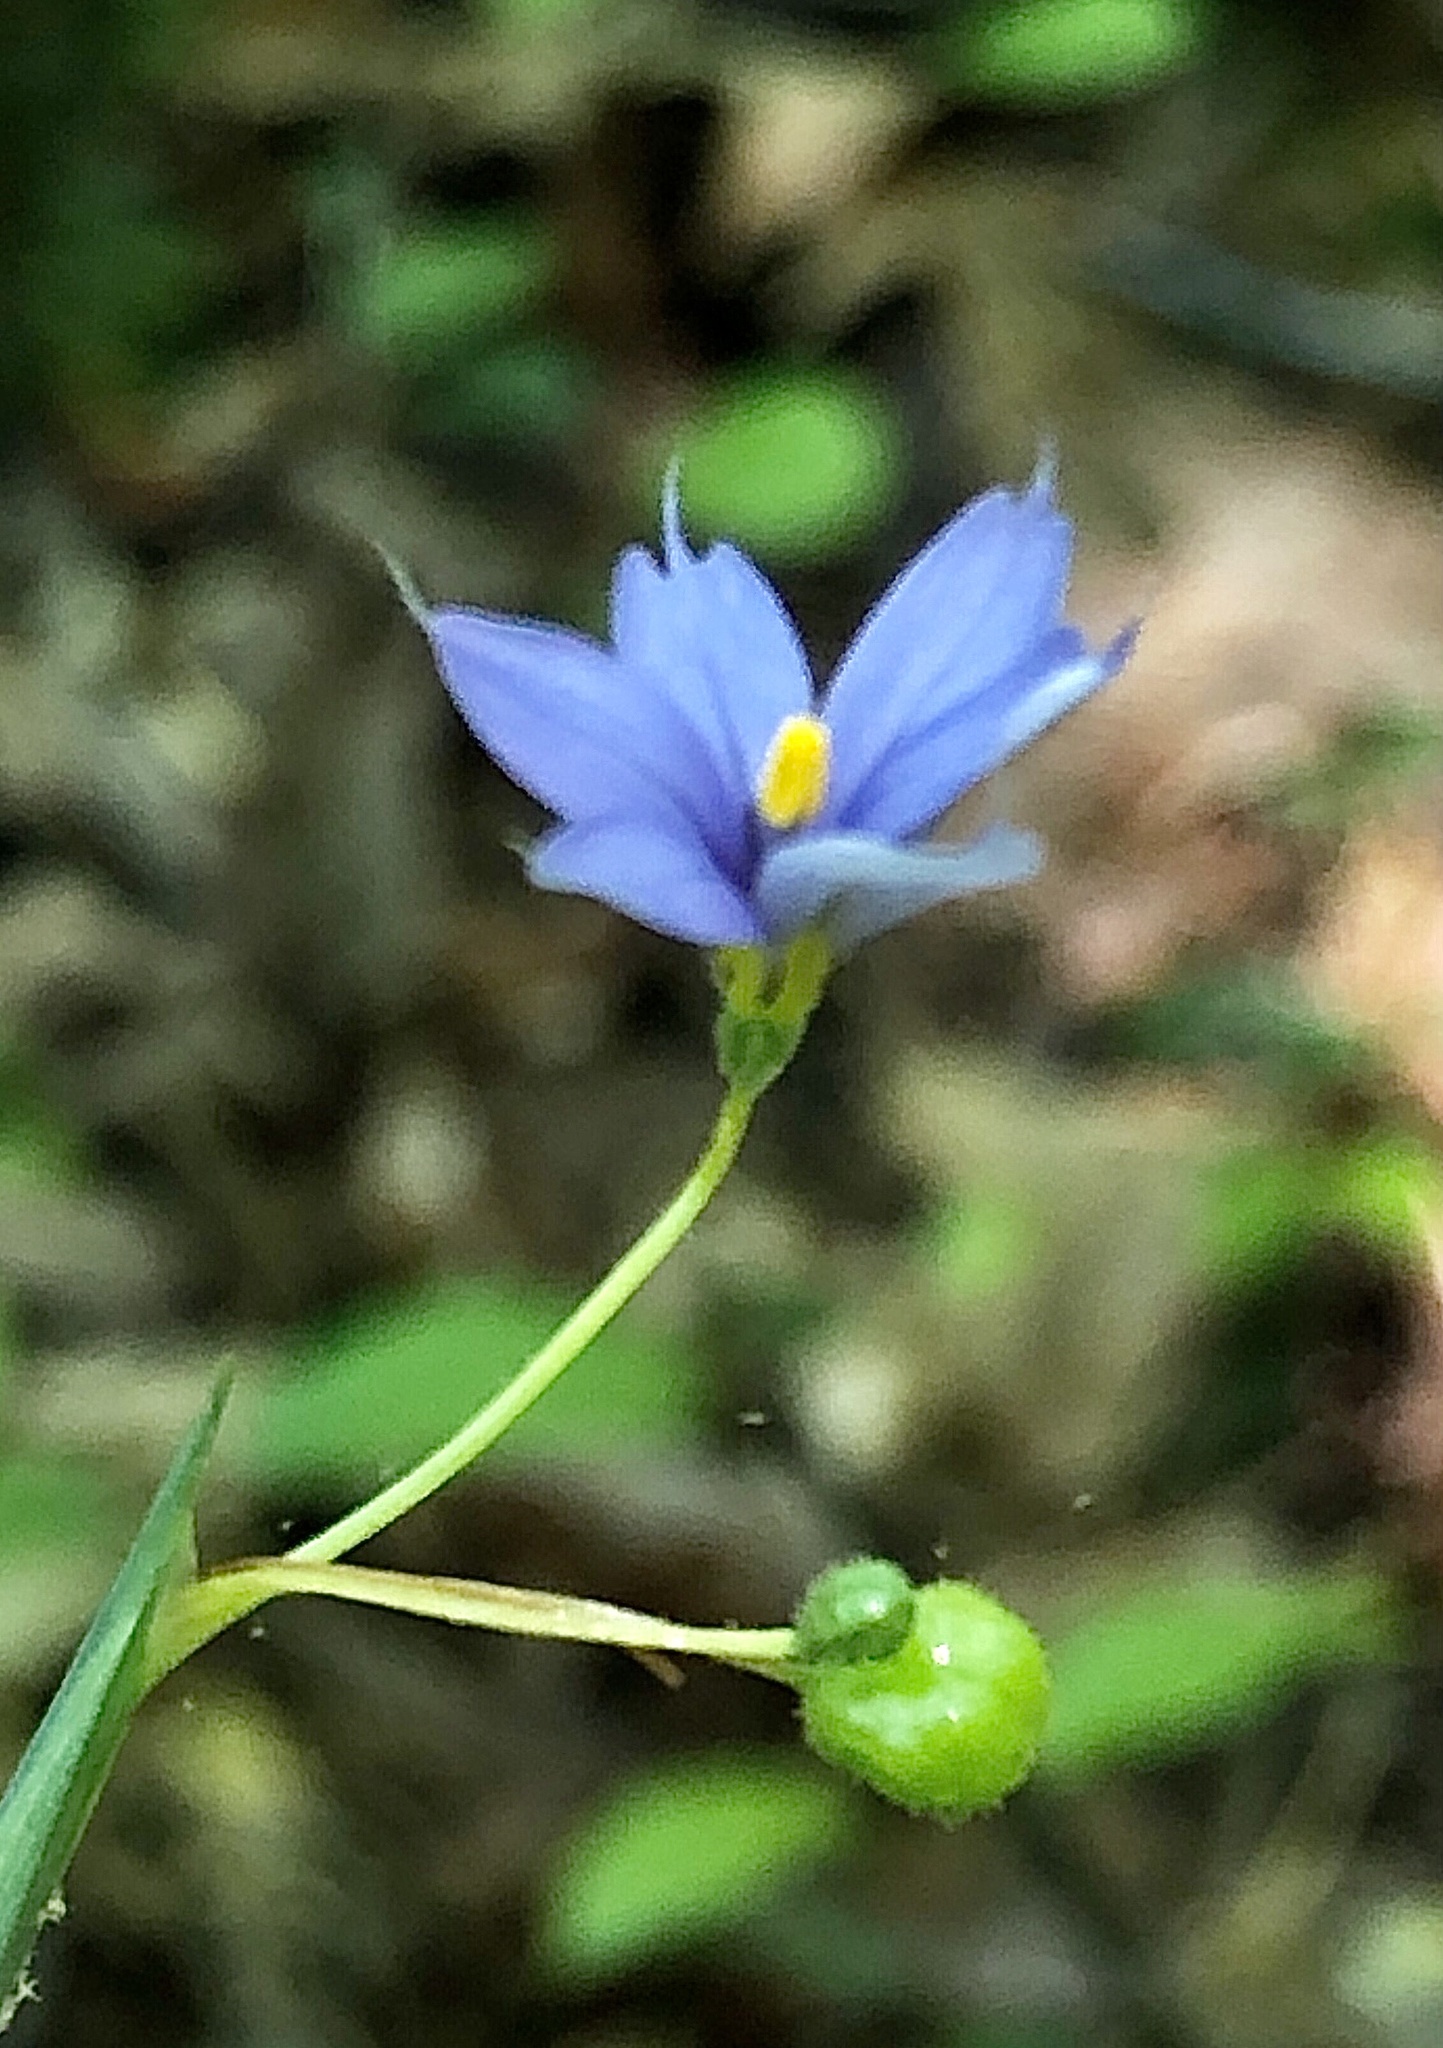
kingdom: Plantae
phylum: Tracheophyta
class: Liliopsida
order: Asparagales
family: Iridaceae
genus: Sisyrinchium
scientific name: Sisyrinchium angustifolium
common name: Narrow-leaf blue-eyed-grass
